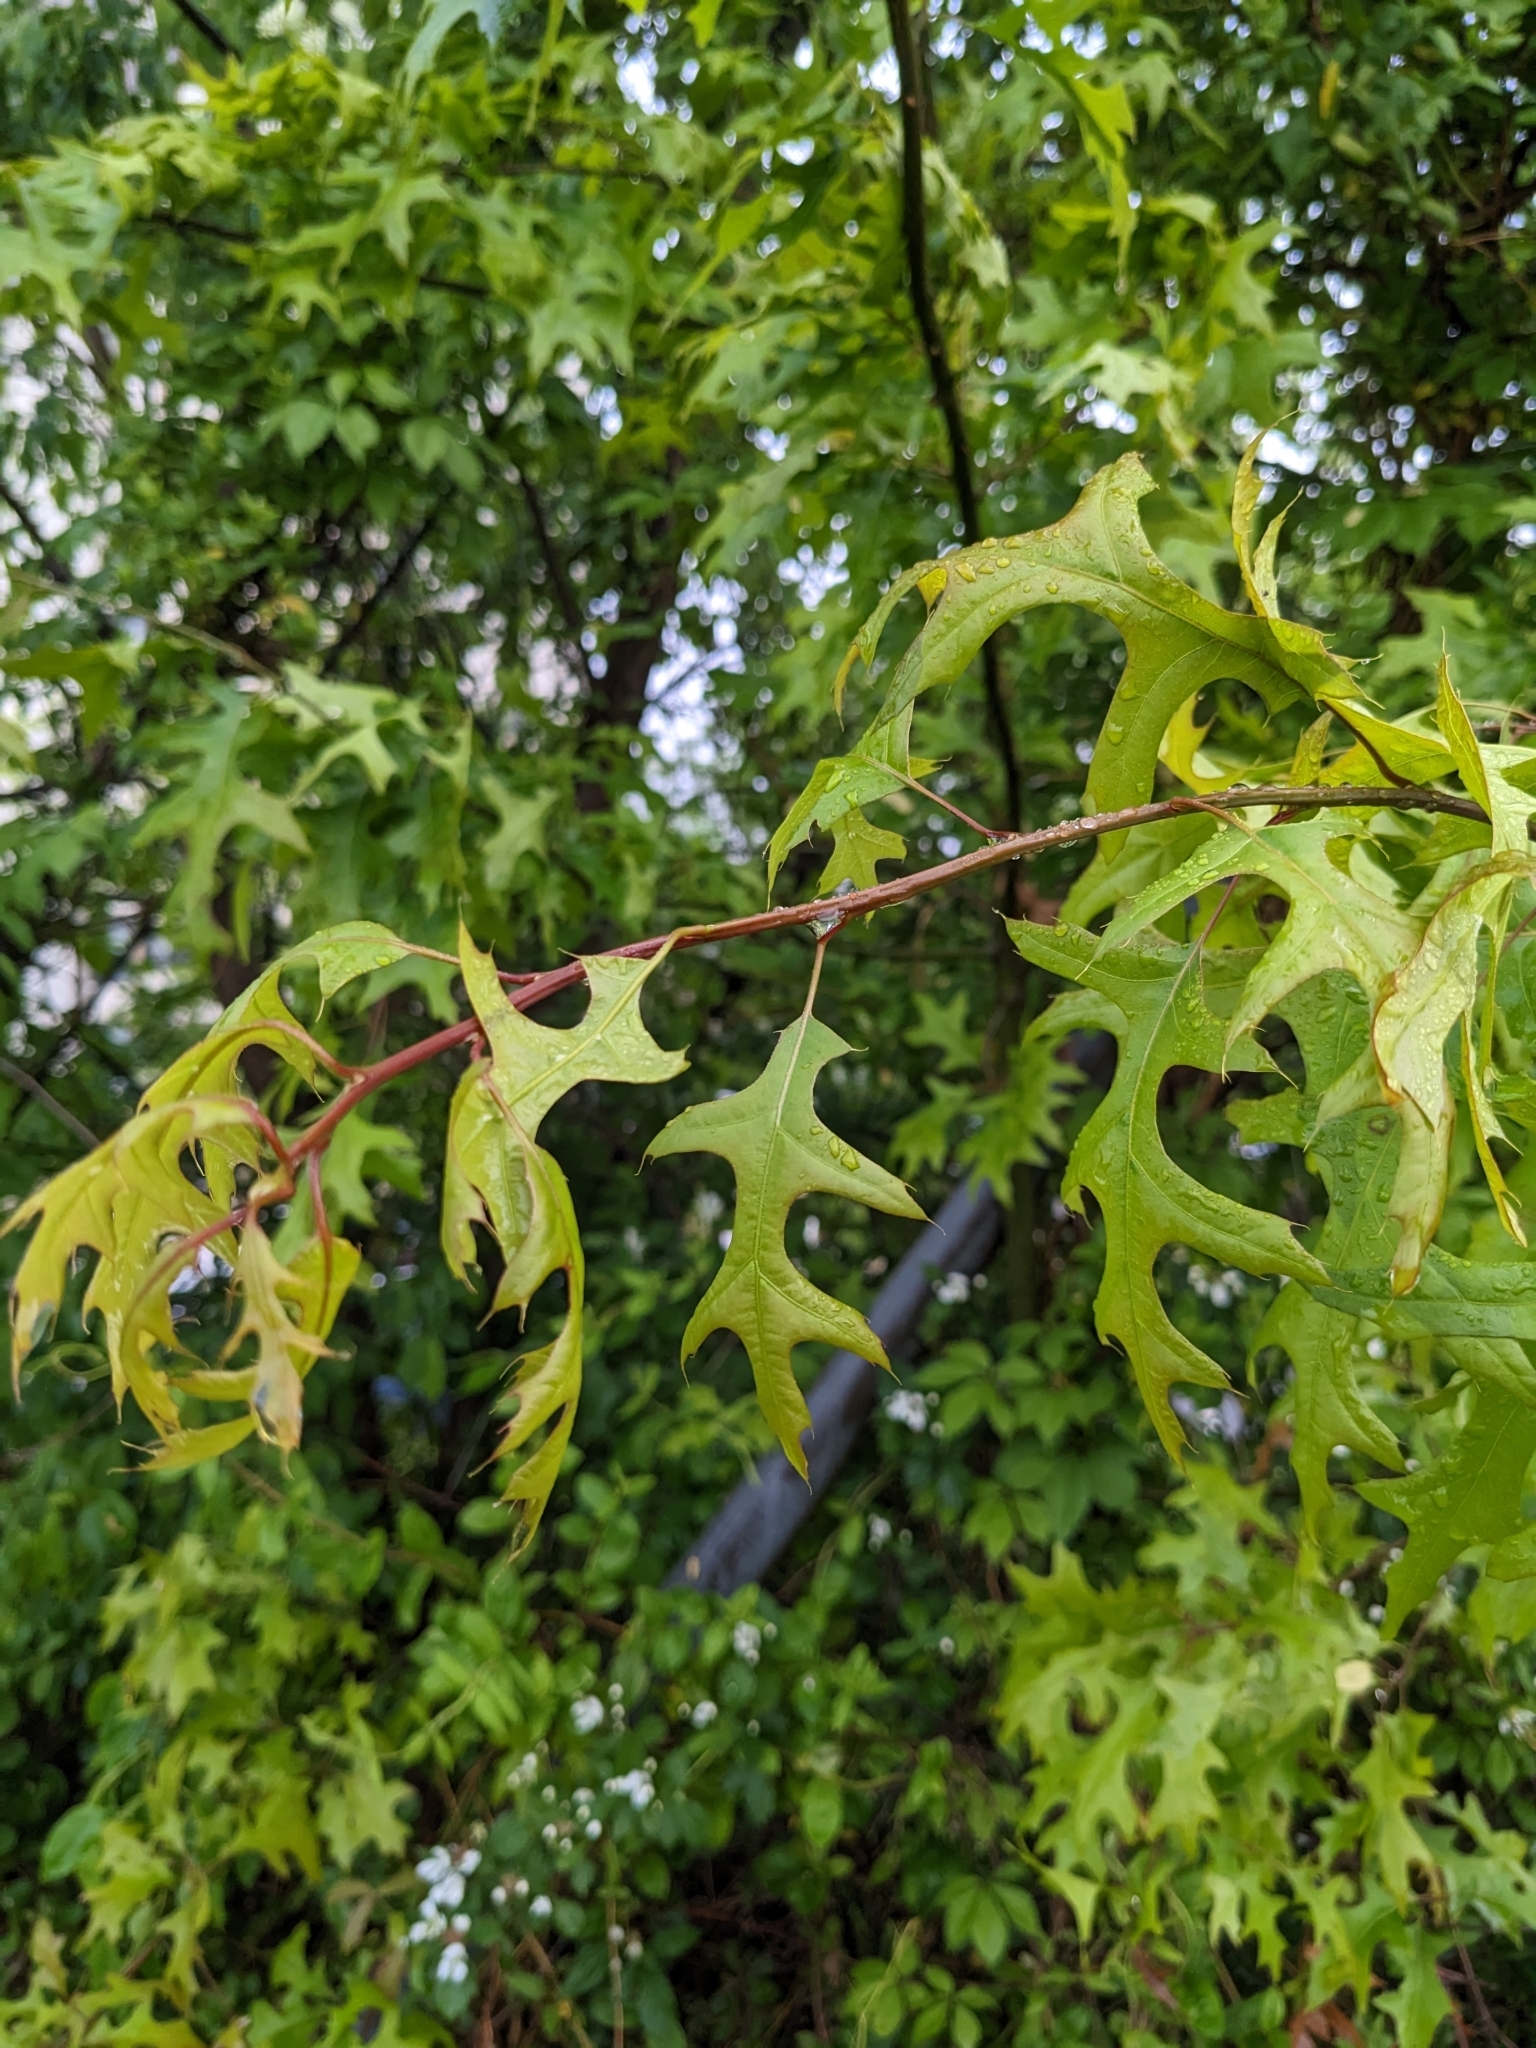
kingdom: Plantae
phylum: Tracheophyta
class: Magnoliopsida
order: Fagales
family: Fagaceae
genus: Quercus
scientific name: Quercus palustris
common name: Pin oak
